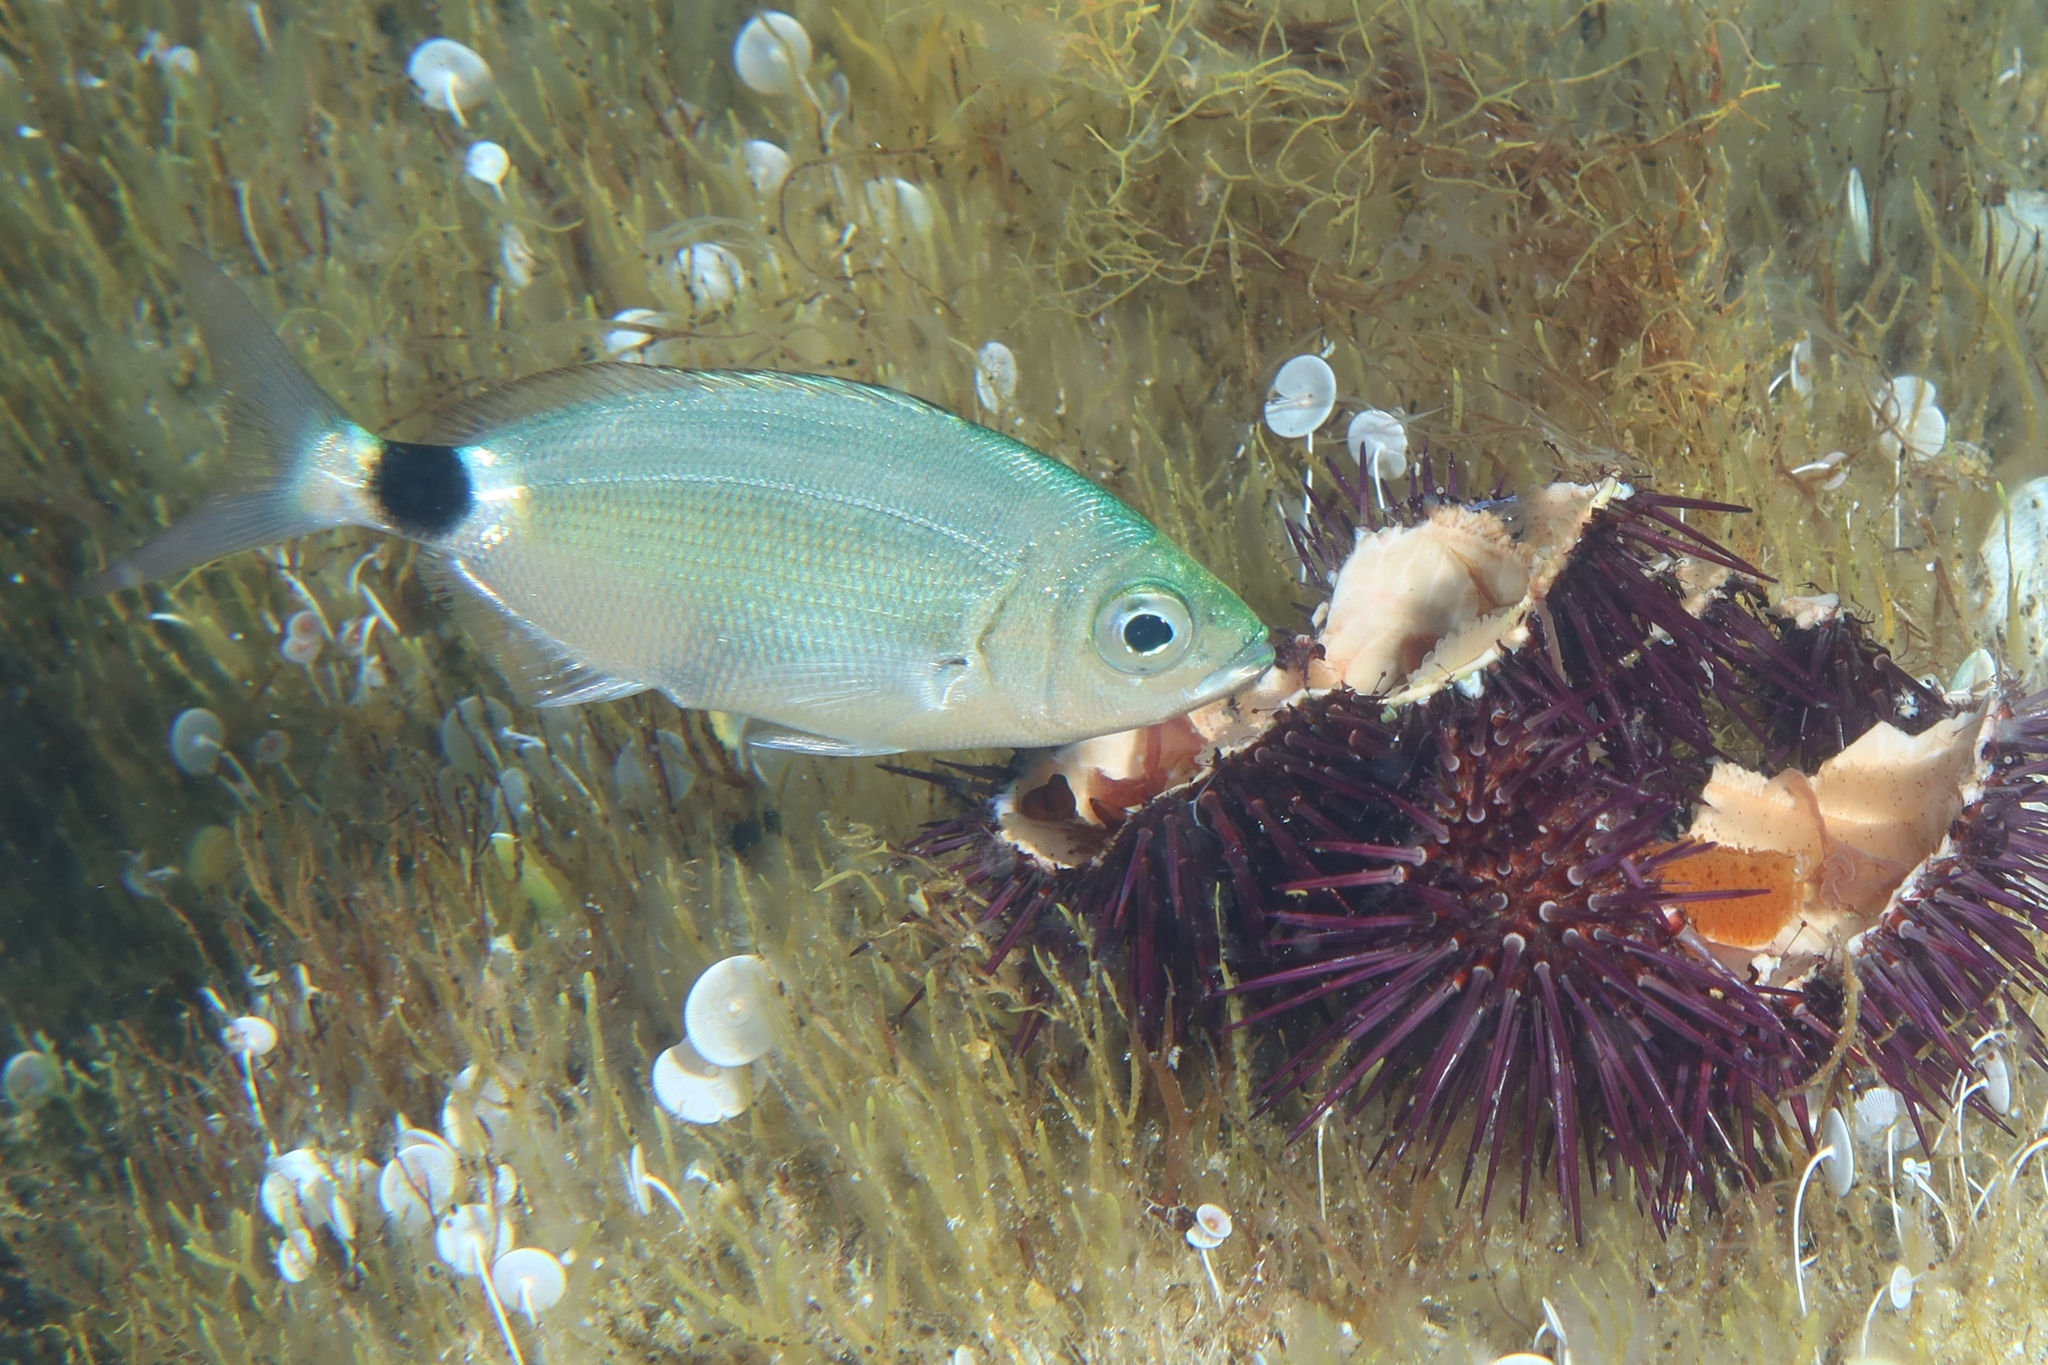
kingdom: Animalia
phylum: Chordata
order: Perciformes
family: Sparidae
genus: Oblada
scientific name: Oblada melanura
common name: Saddled seabream
